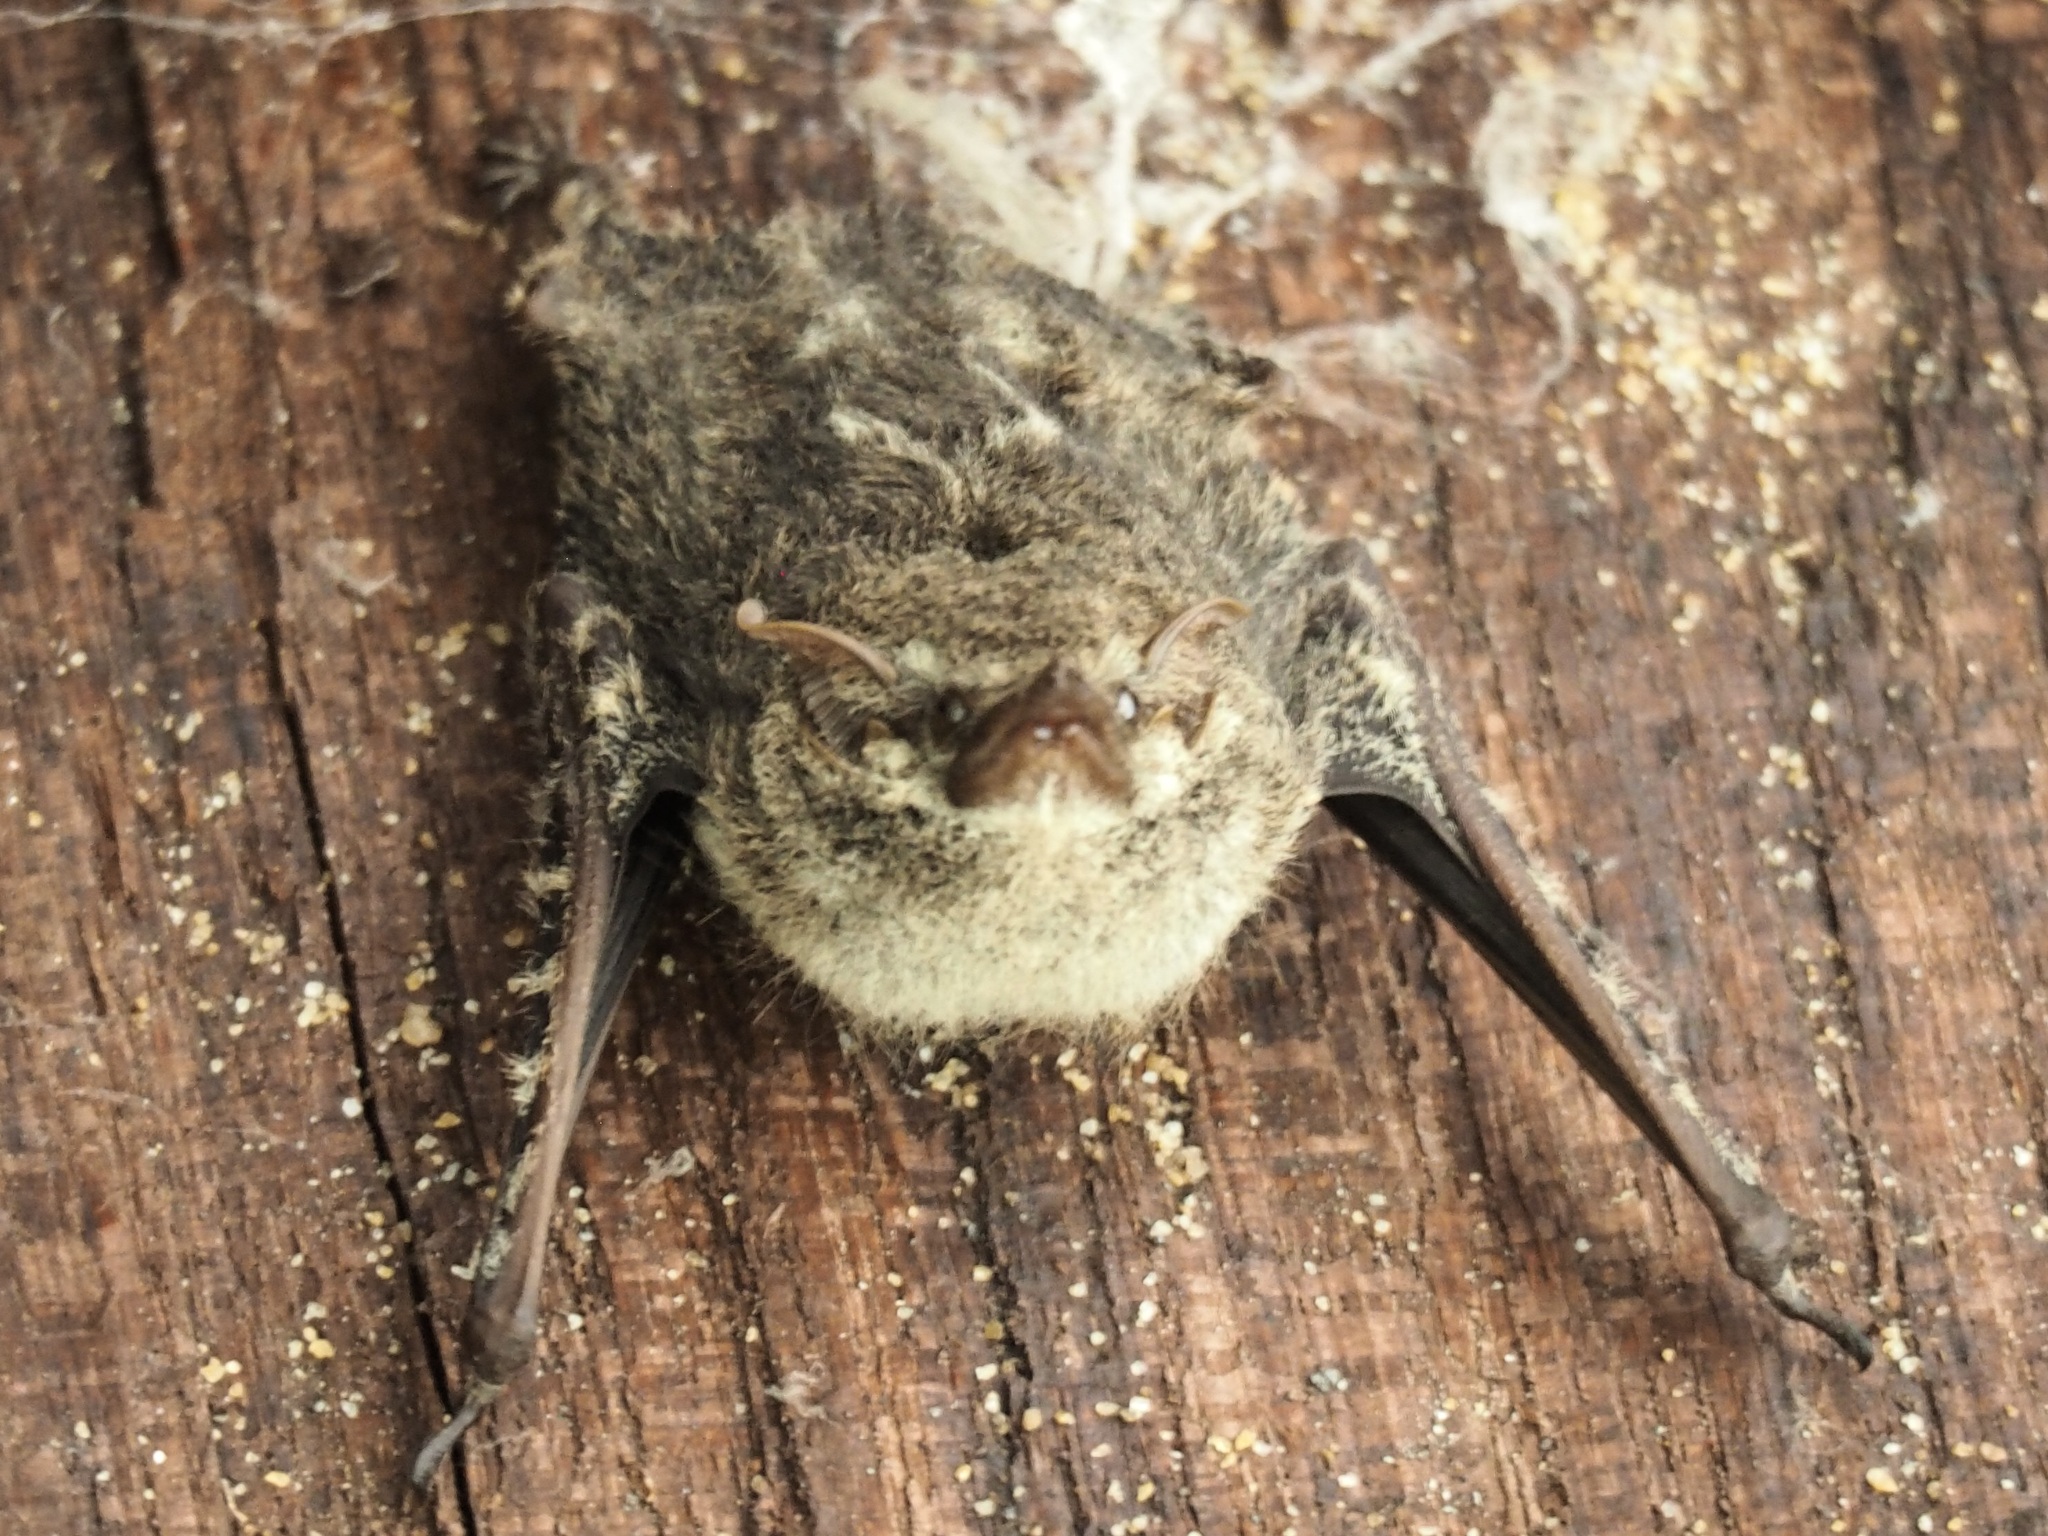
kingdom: Animalia
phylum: Chordata
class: Mammalia
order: Chiroptera
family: Emballonuridae
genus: Rhynchonycteris
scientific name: Rhynchonycteris naso
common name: Proboscis bat
